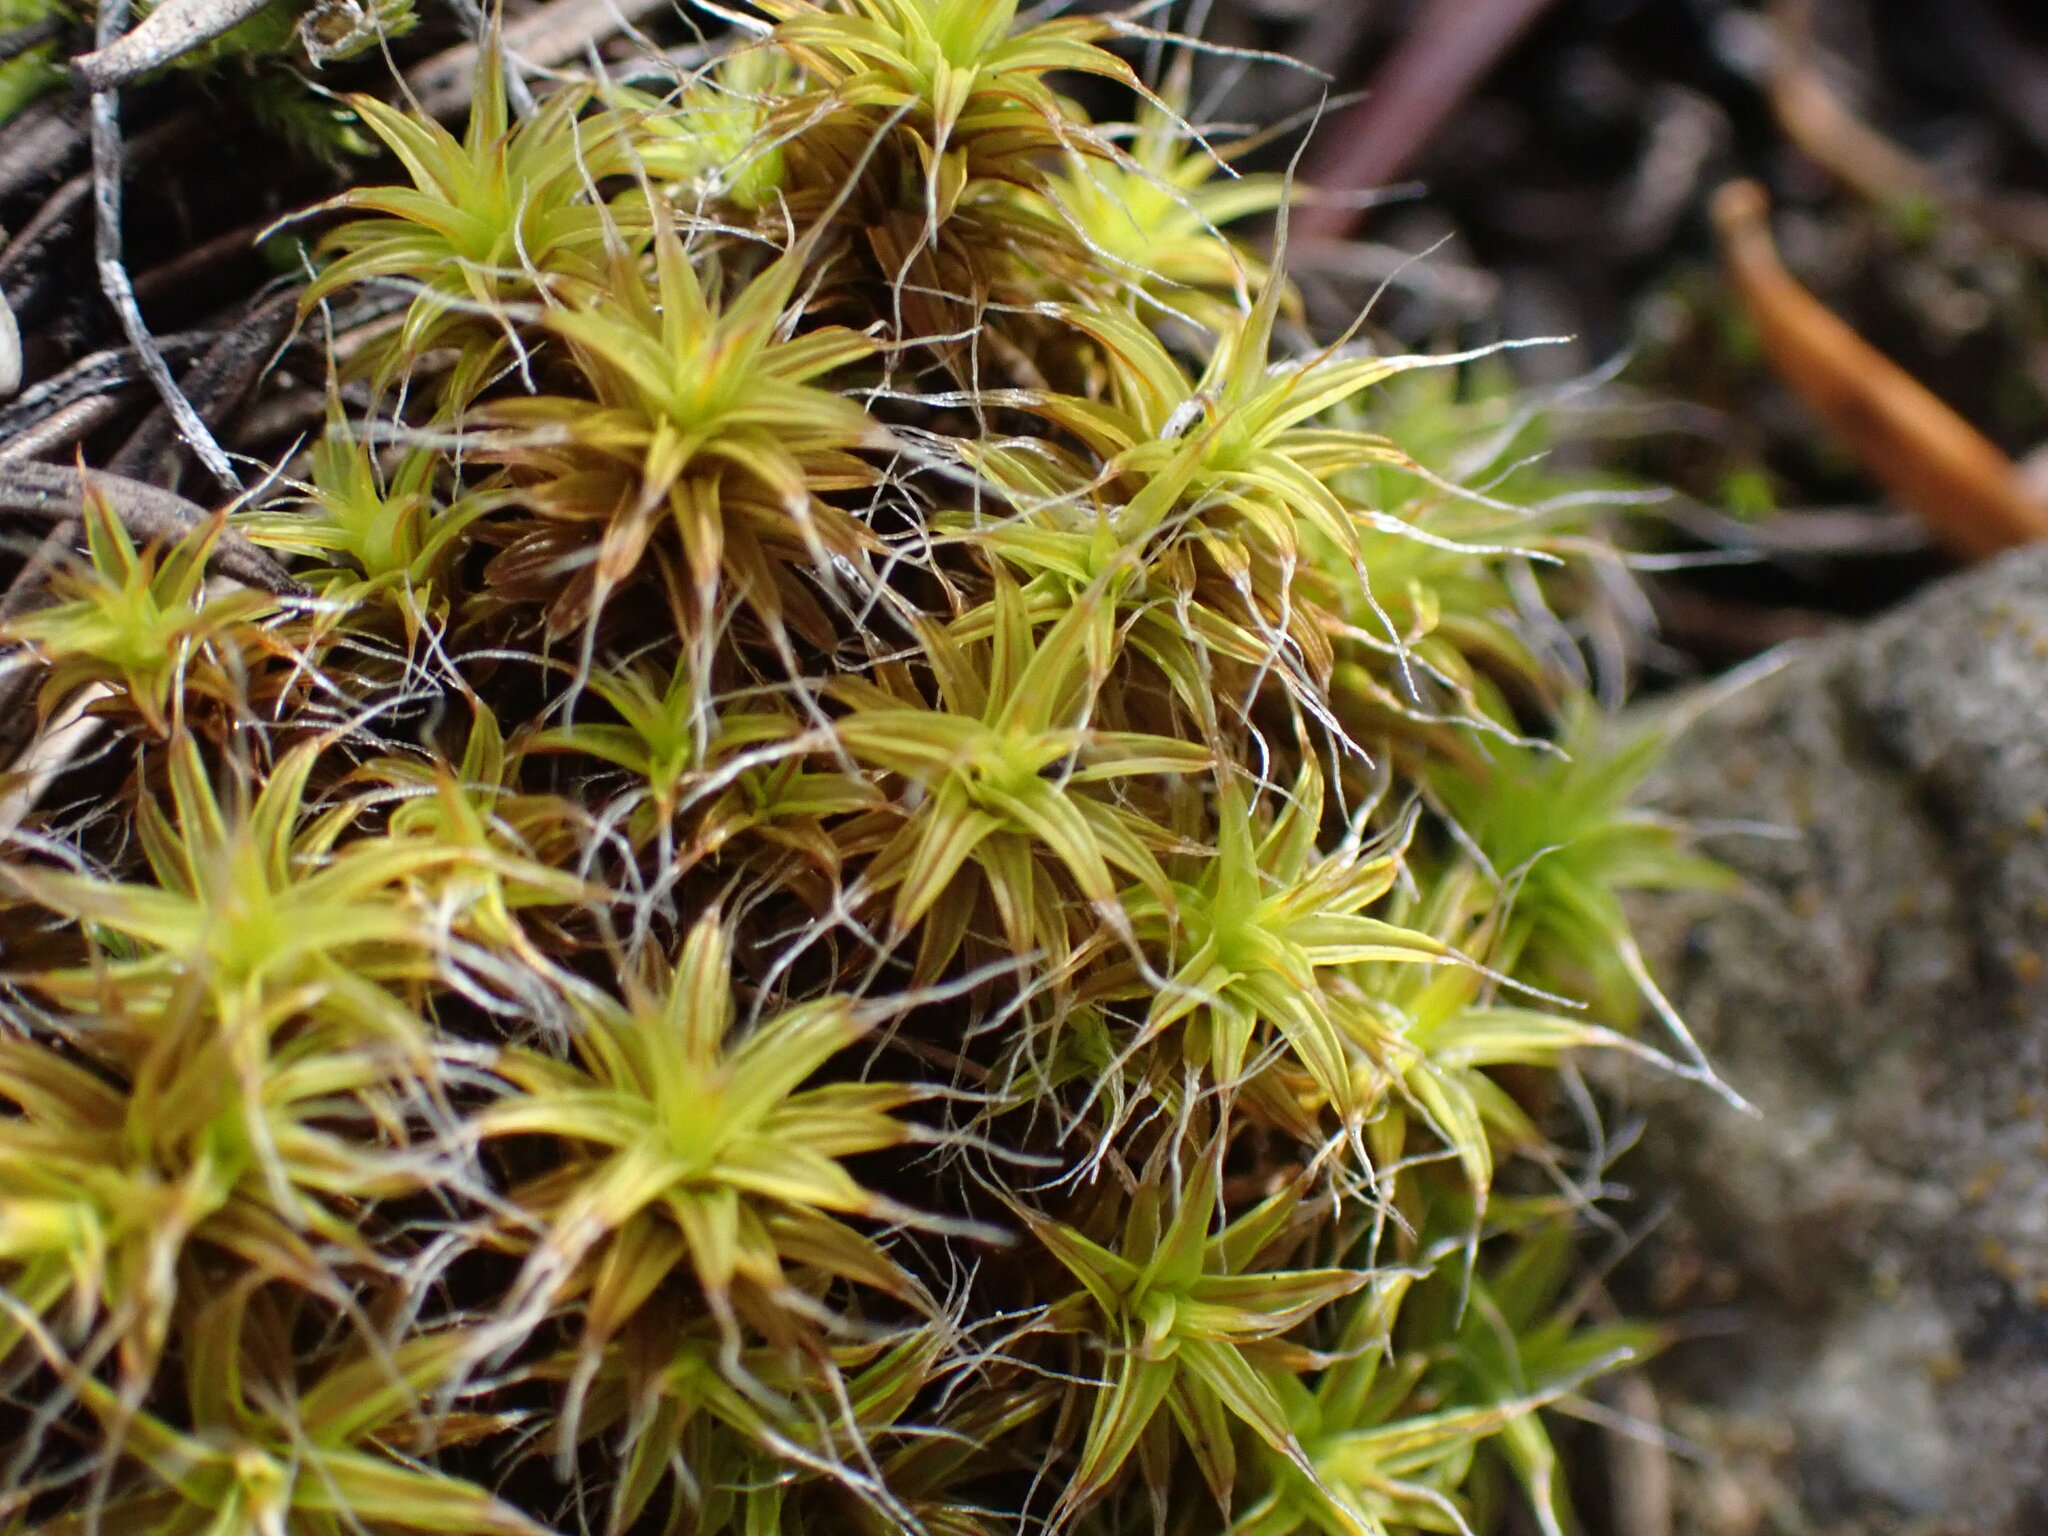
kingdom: Plantae
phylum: Bryophyta
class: Bryopsida
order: Pottiales
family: Pottiaceae
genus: Syntrichia
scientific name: Syntrichia ruralis
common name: Sidewalk screw moss
